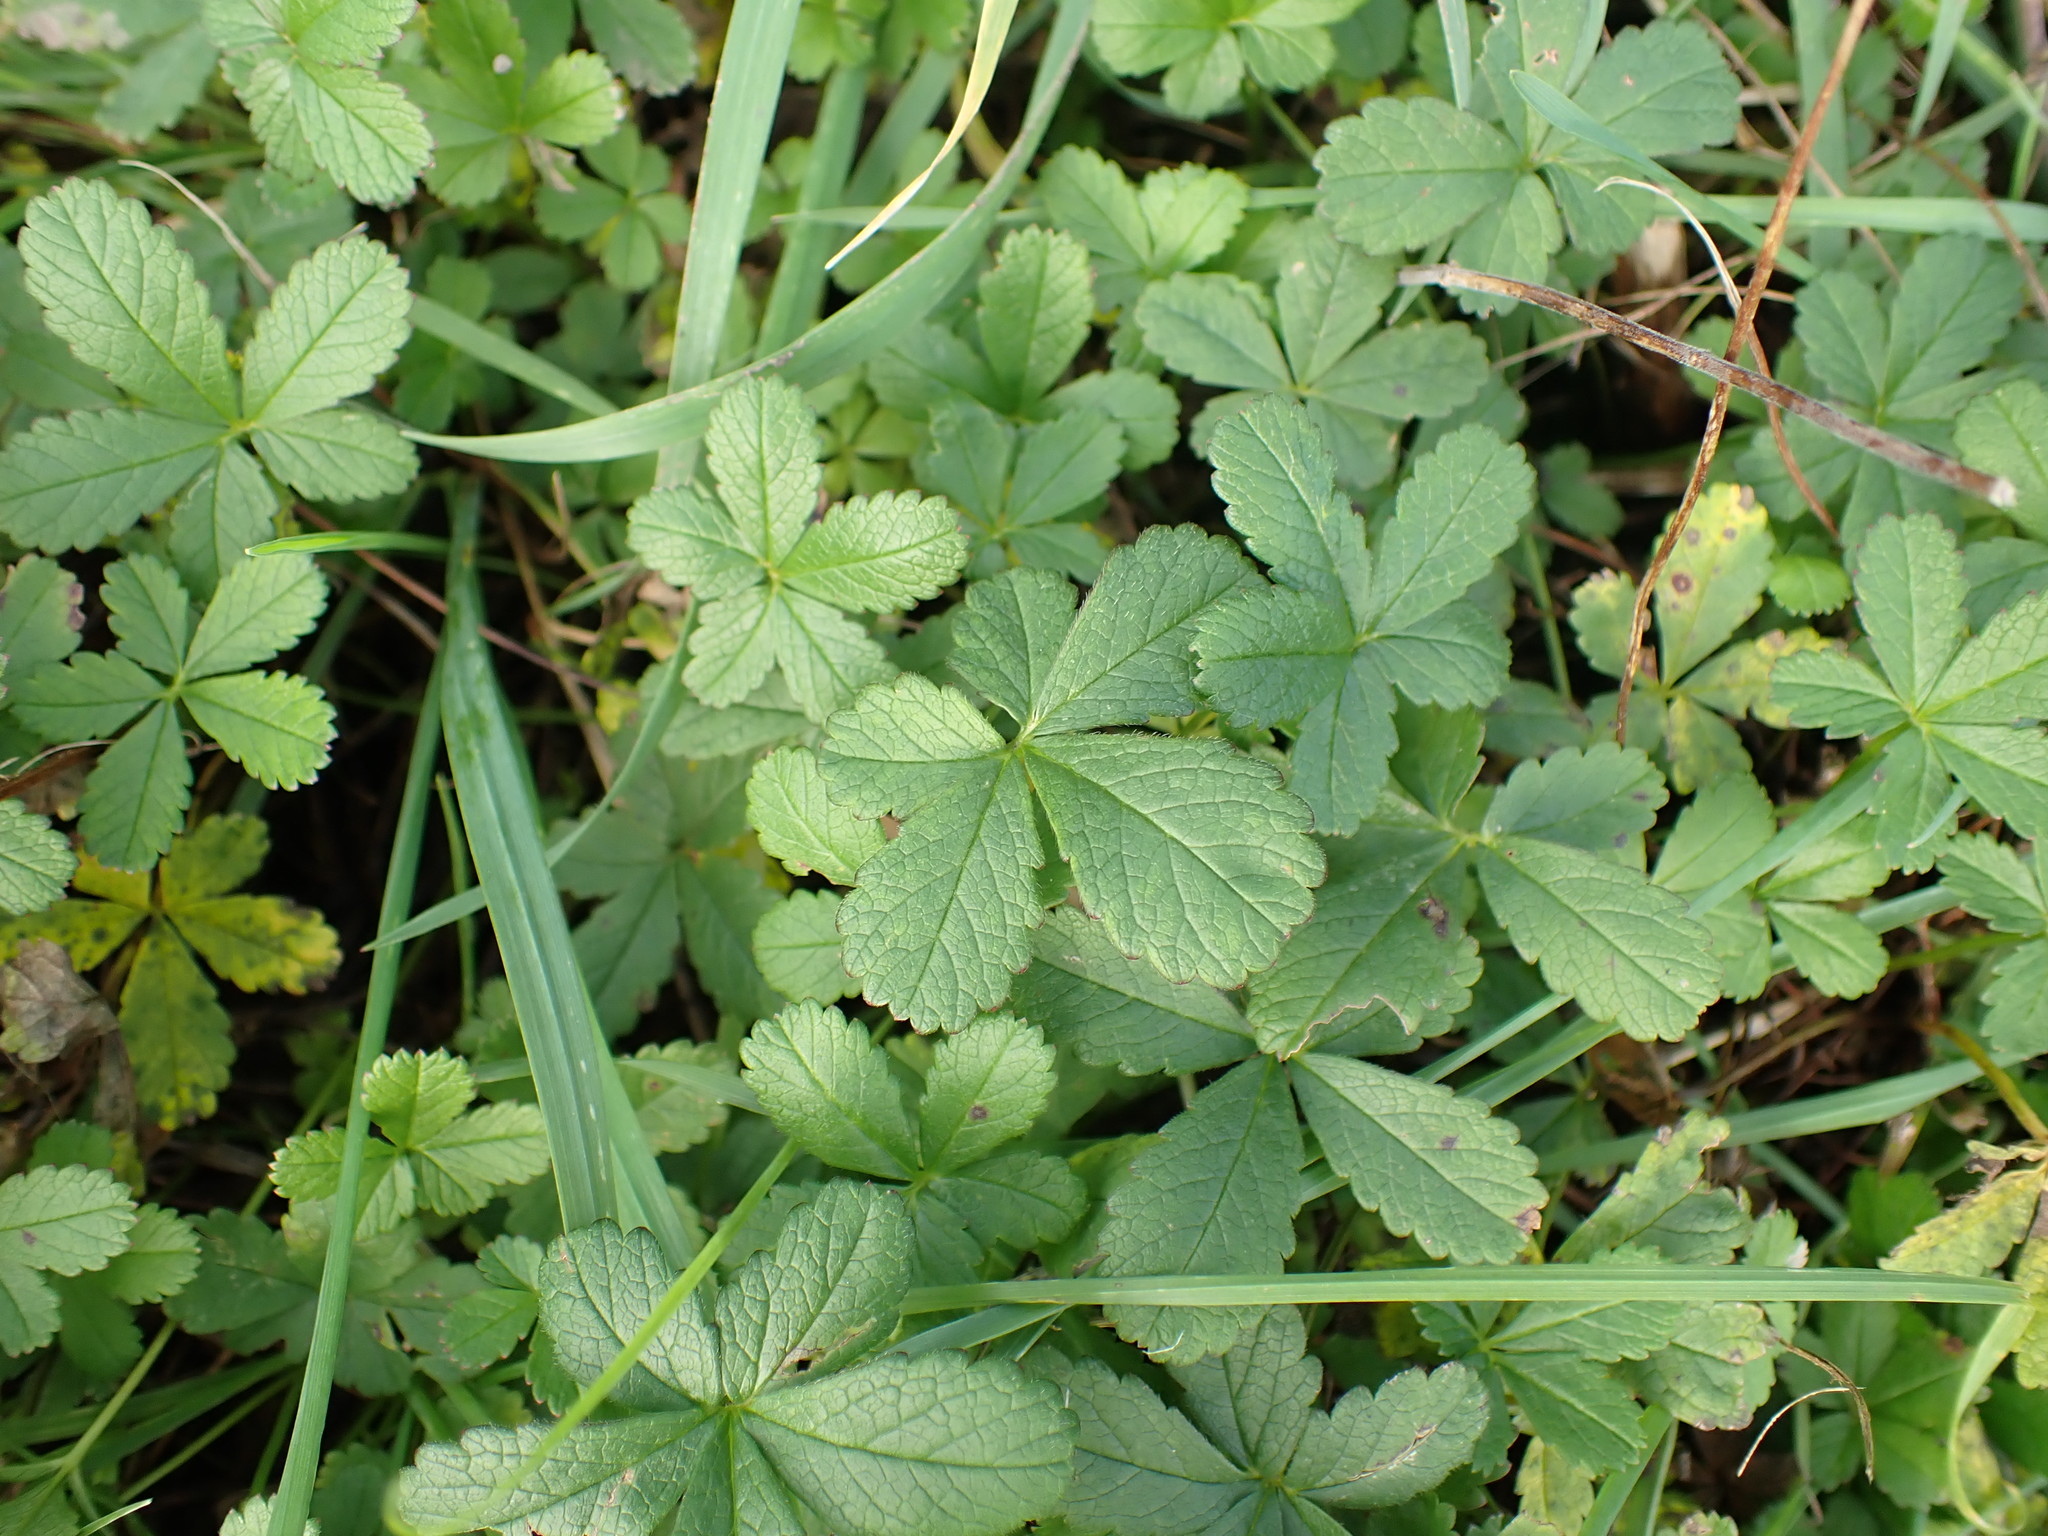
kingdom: Plantae
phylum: Tracheophyta
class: Magnoliopsida
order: Rosales
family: Rosaceae
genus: Potentilla
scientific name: Potentilla reptans
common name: Creeping cinquefoil
